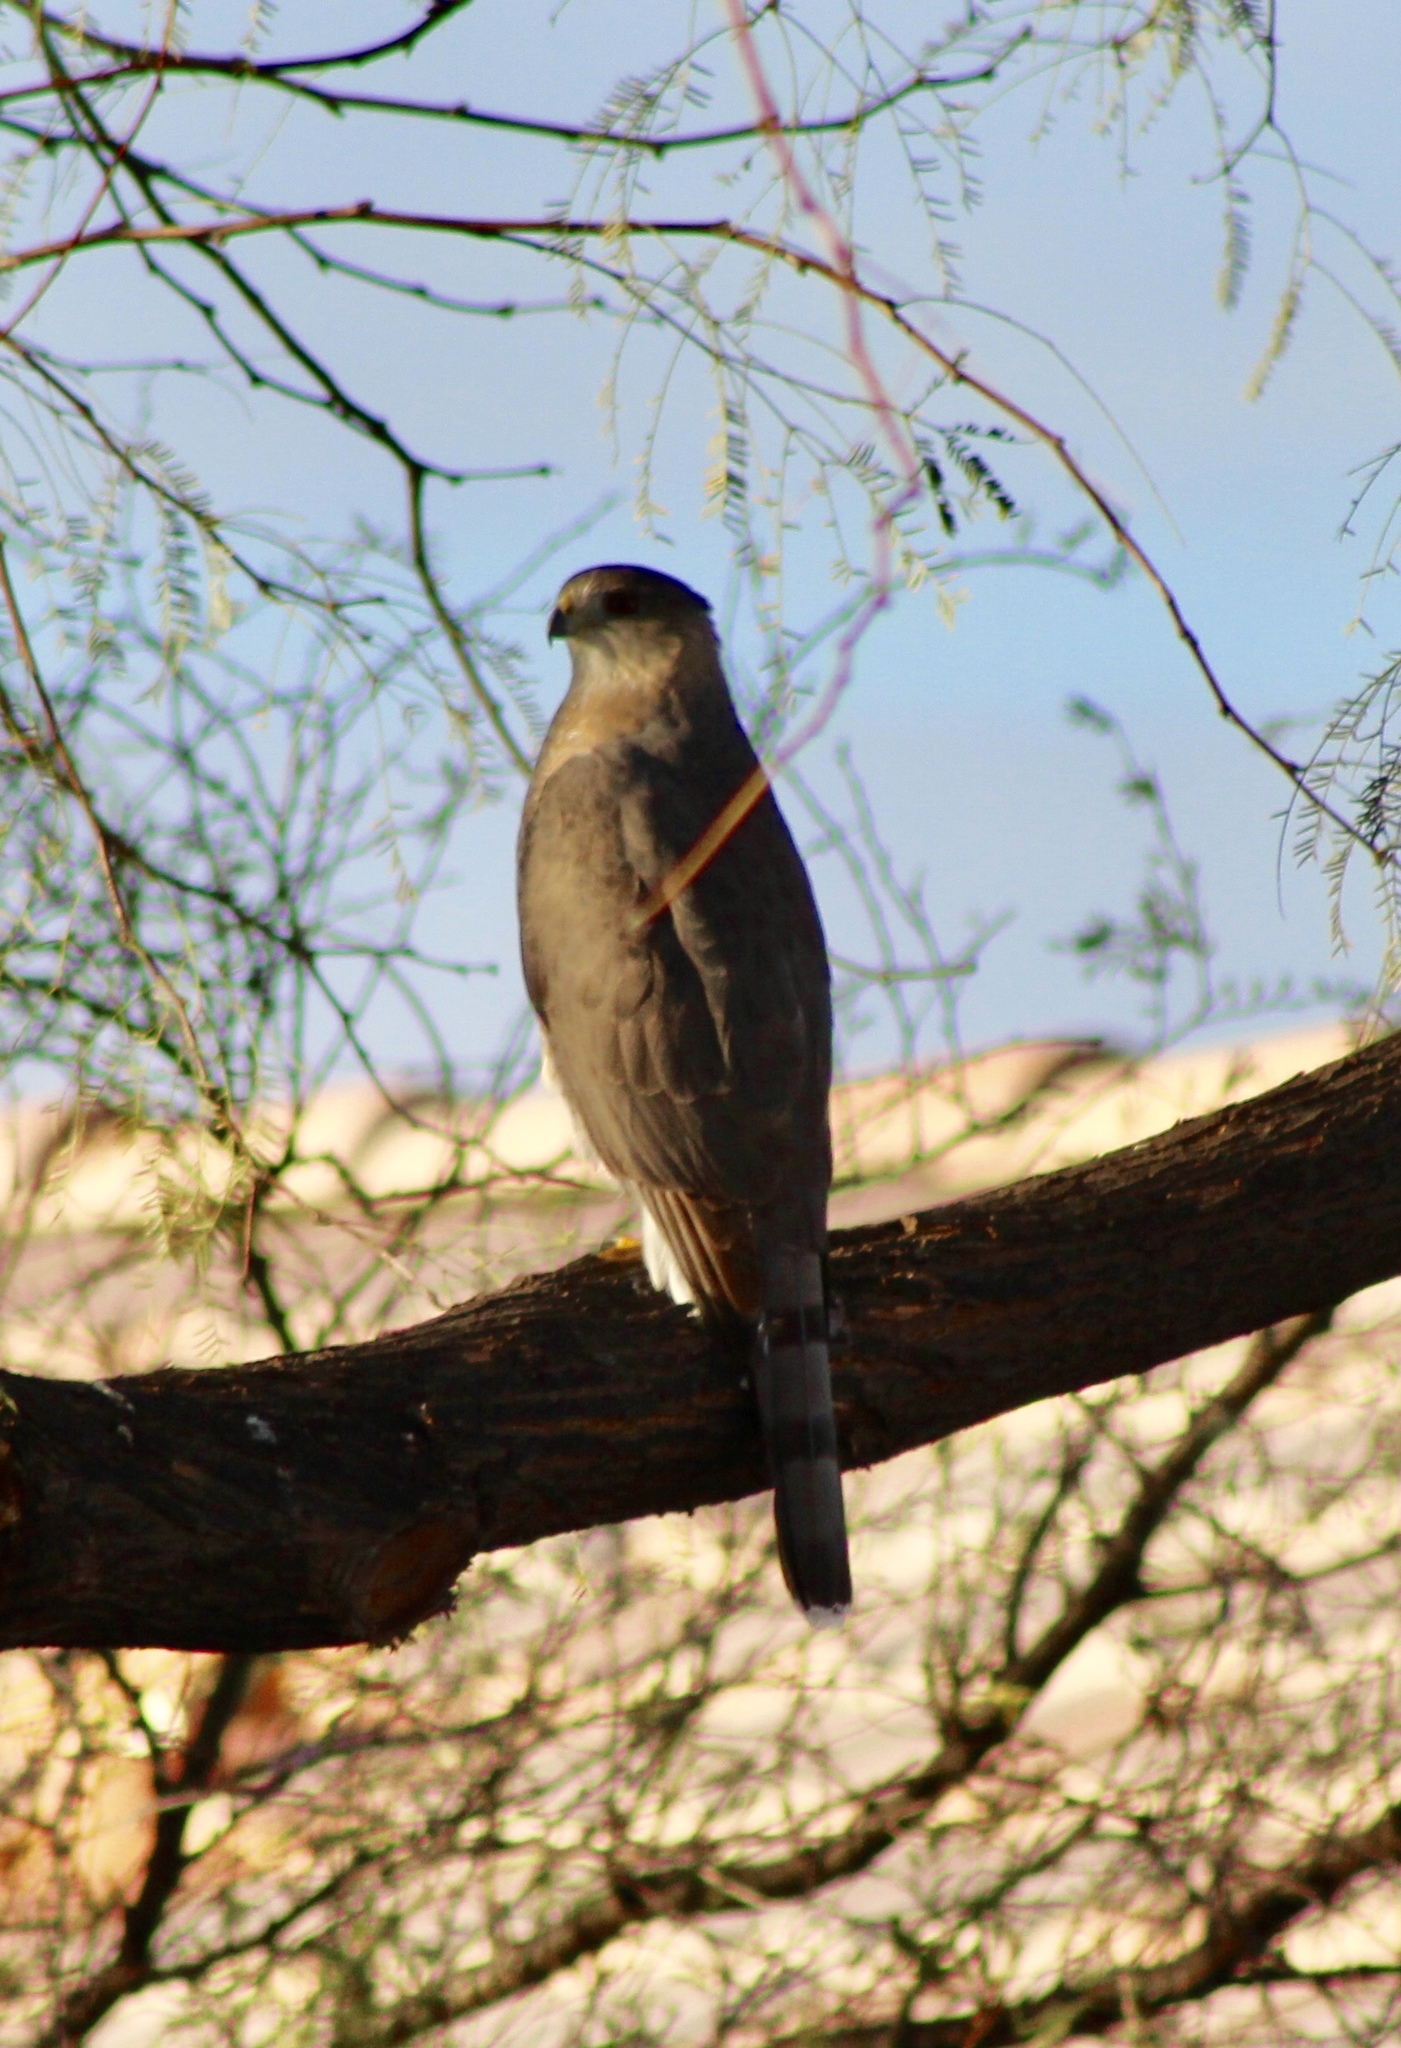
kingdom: Animalia
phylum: Chordata
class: Aves
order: Accipitriformes
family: Accipitridae
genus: Accipiter
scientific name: Accipiter cooperii
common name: Cooper's hawk
